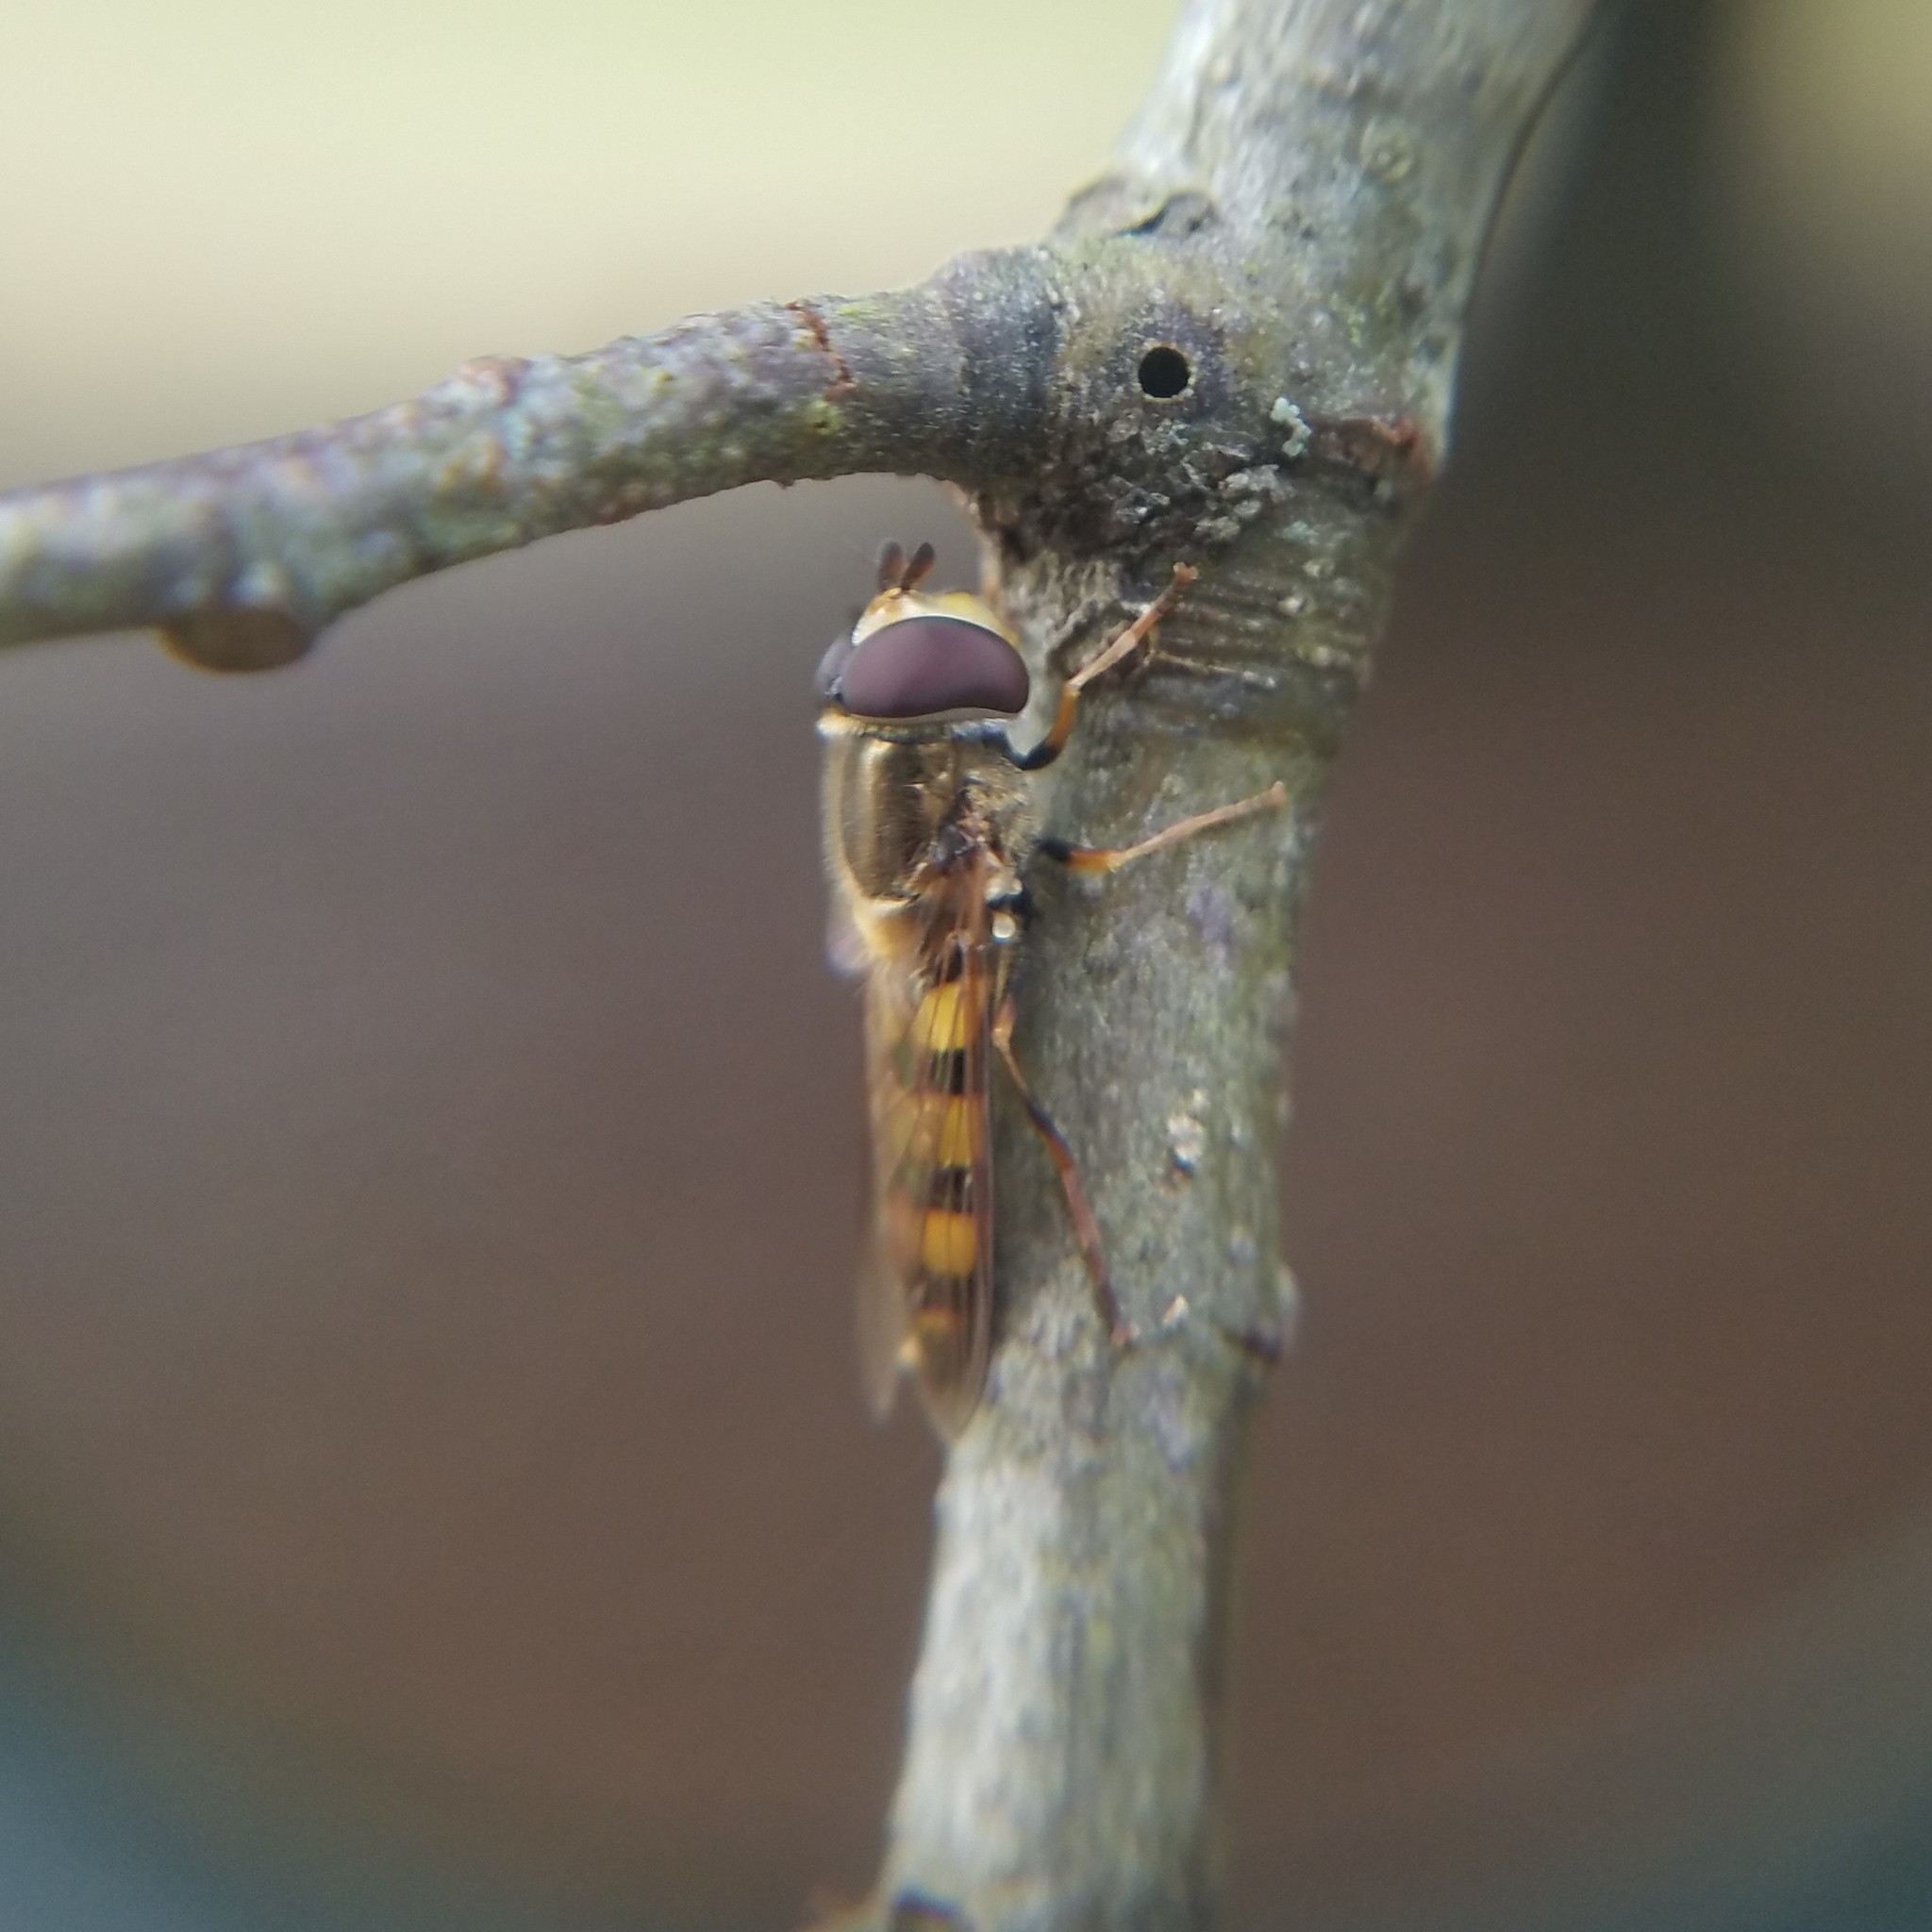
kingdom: Animalia
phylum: Arthropoda
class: Insecta
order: Diptera
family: Syrphidae
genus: Eupeodes
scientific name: Eupeodes
